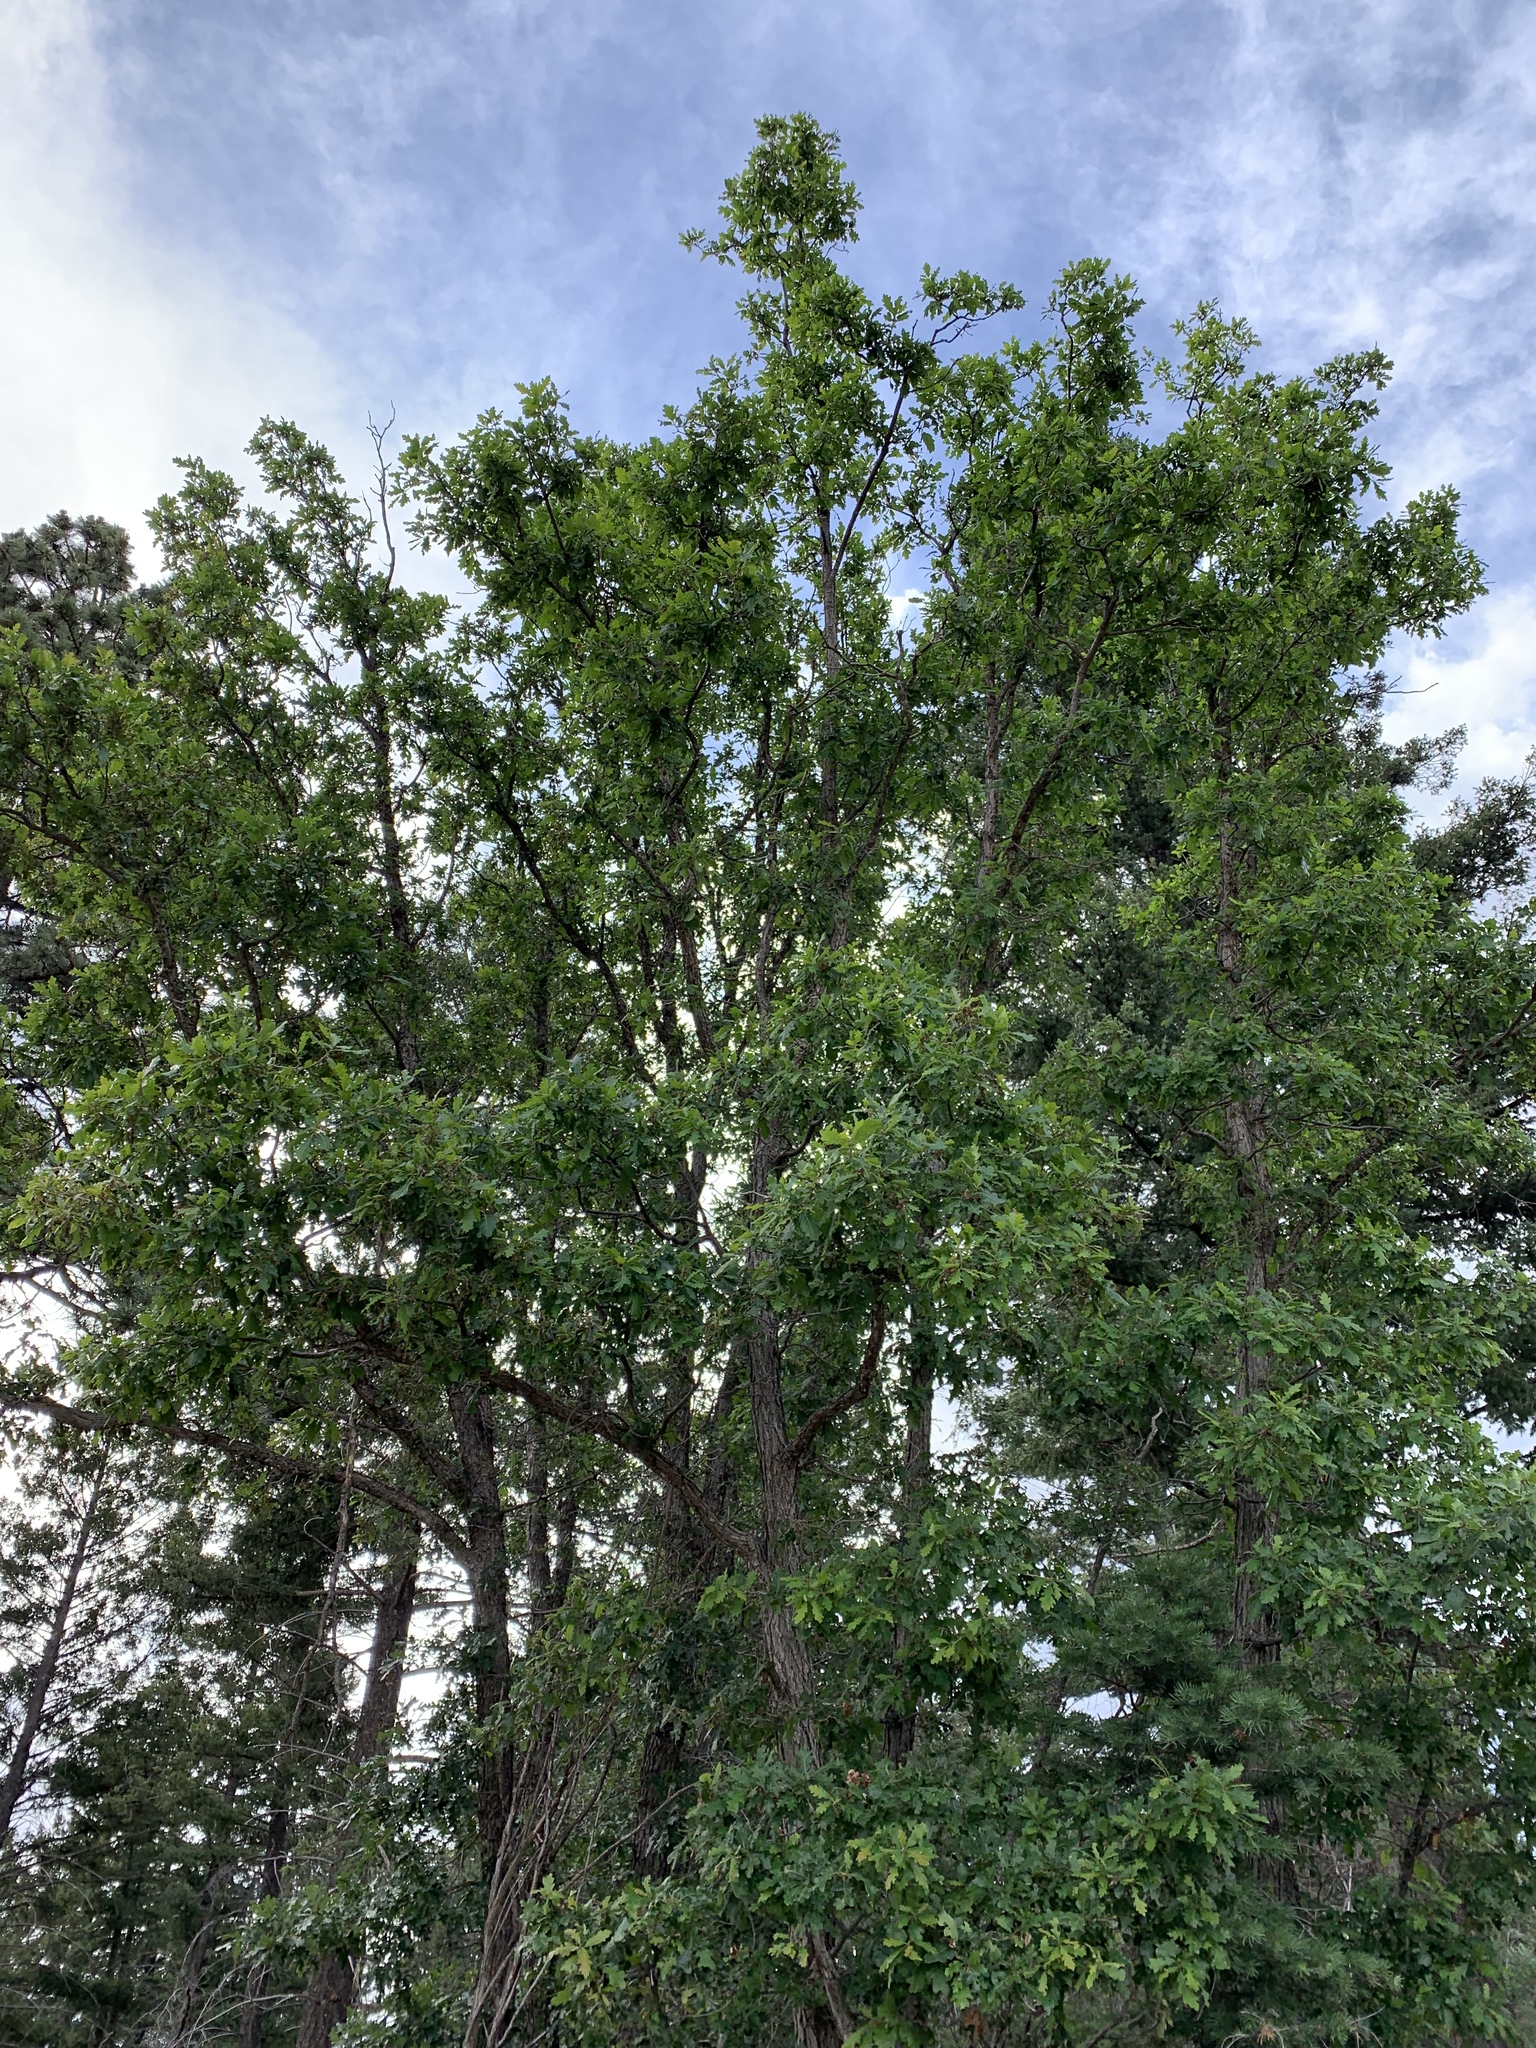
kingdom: Plantae
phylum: Tracheophyta
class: Magnoliopsida
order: Fagales
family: Fagaceae
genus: Quercus
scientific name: Quercus gambelii
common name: Gambel oak
